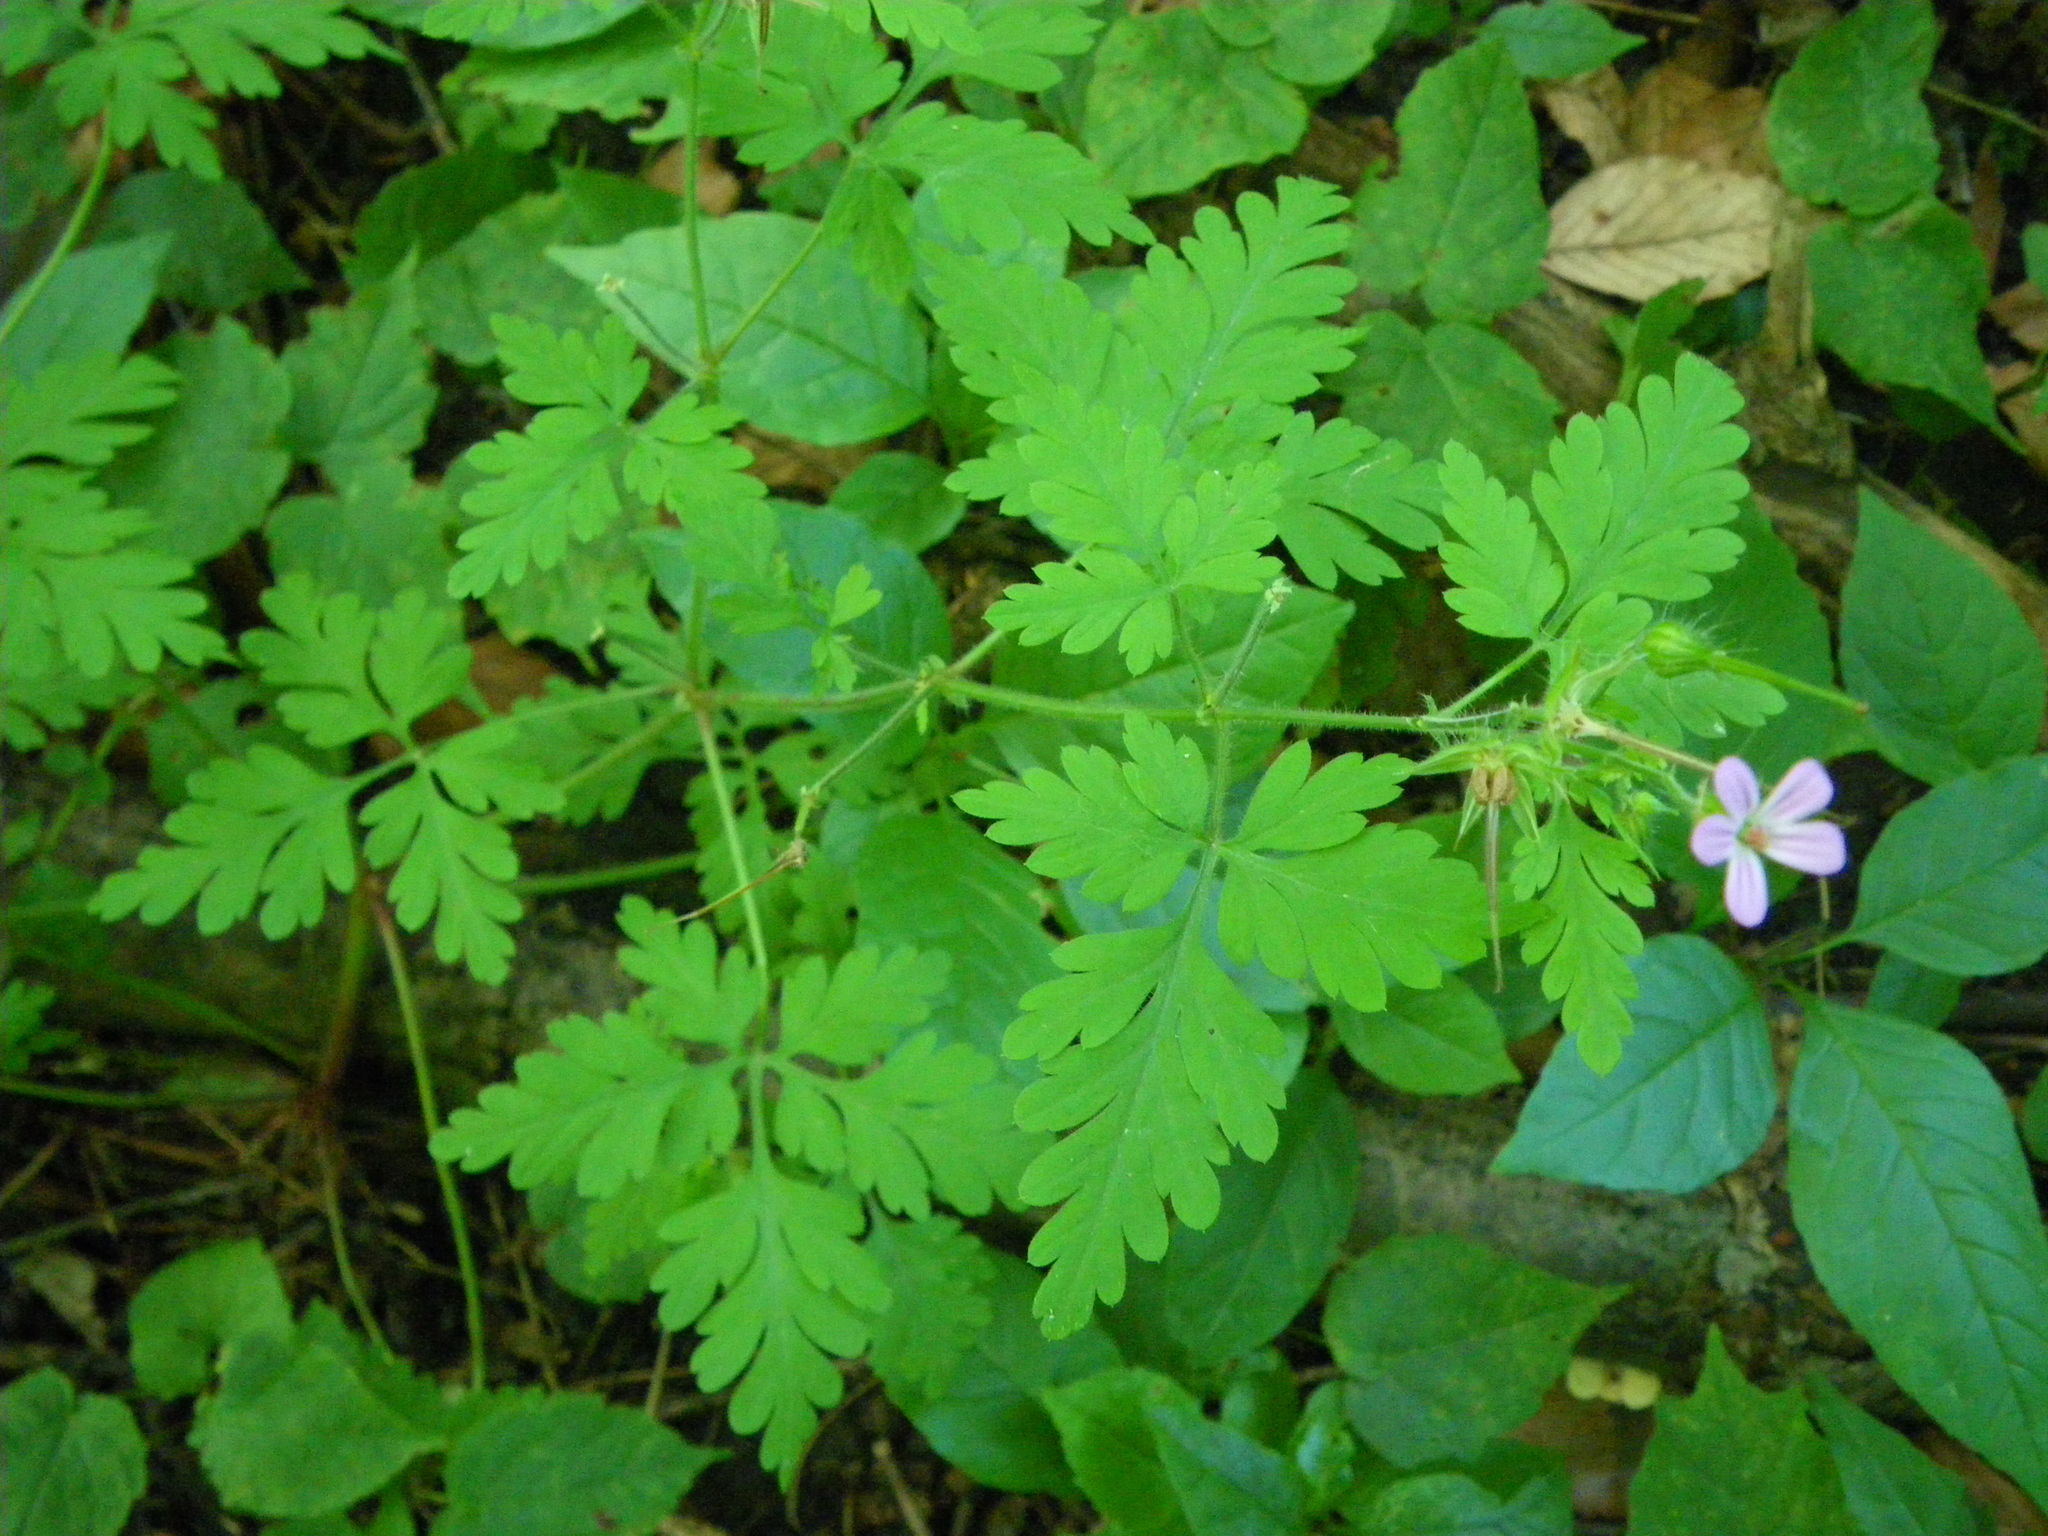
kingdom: Plantae
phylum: Tracheophyta
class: Magnoliopsida
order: Geraniales
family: Geraniaceae
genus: Geranium
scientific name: Geranium robertianum
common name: Herb-robert
